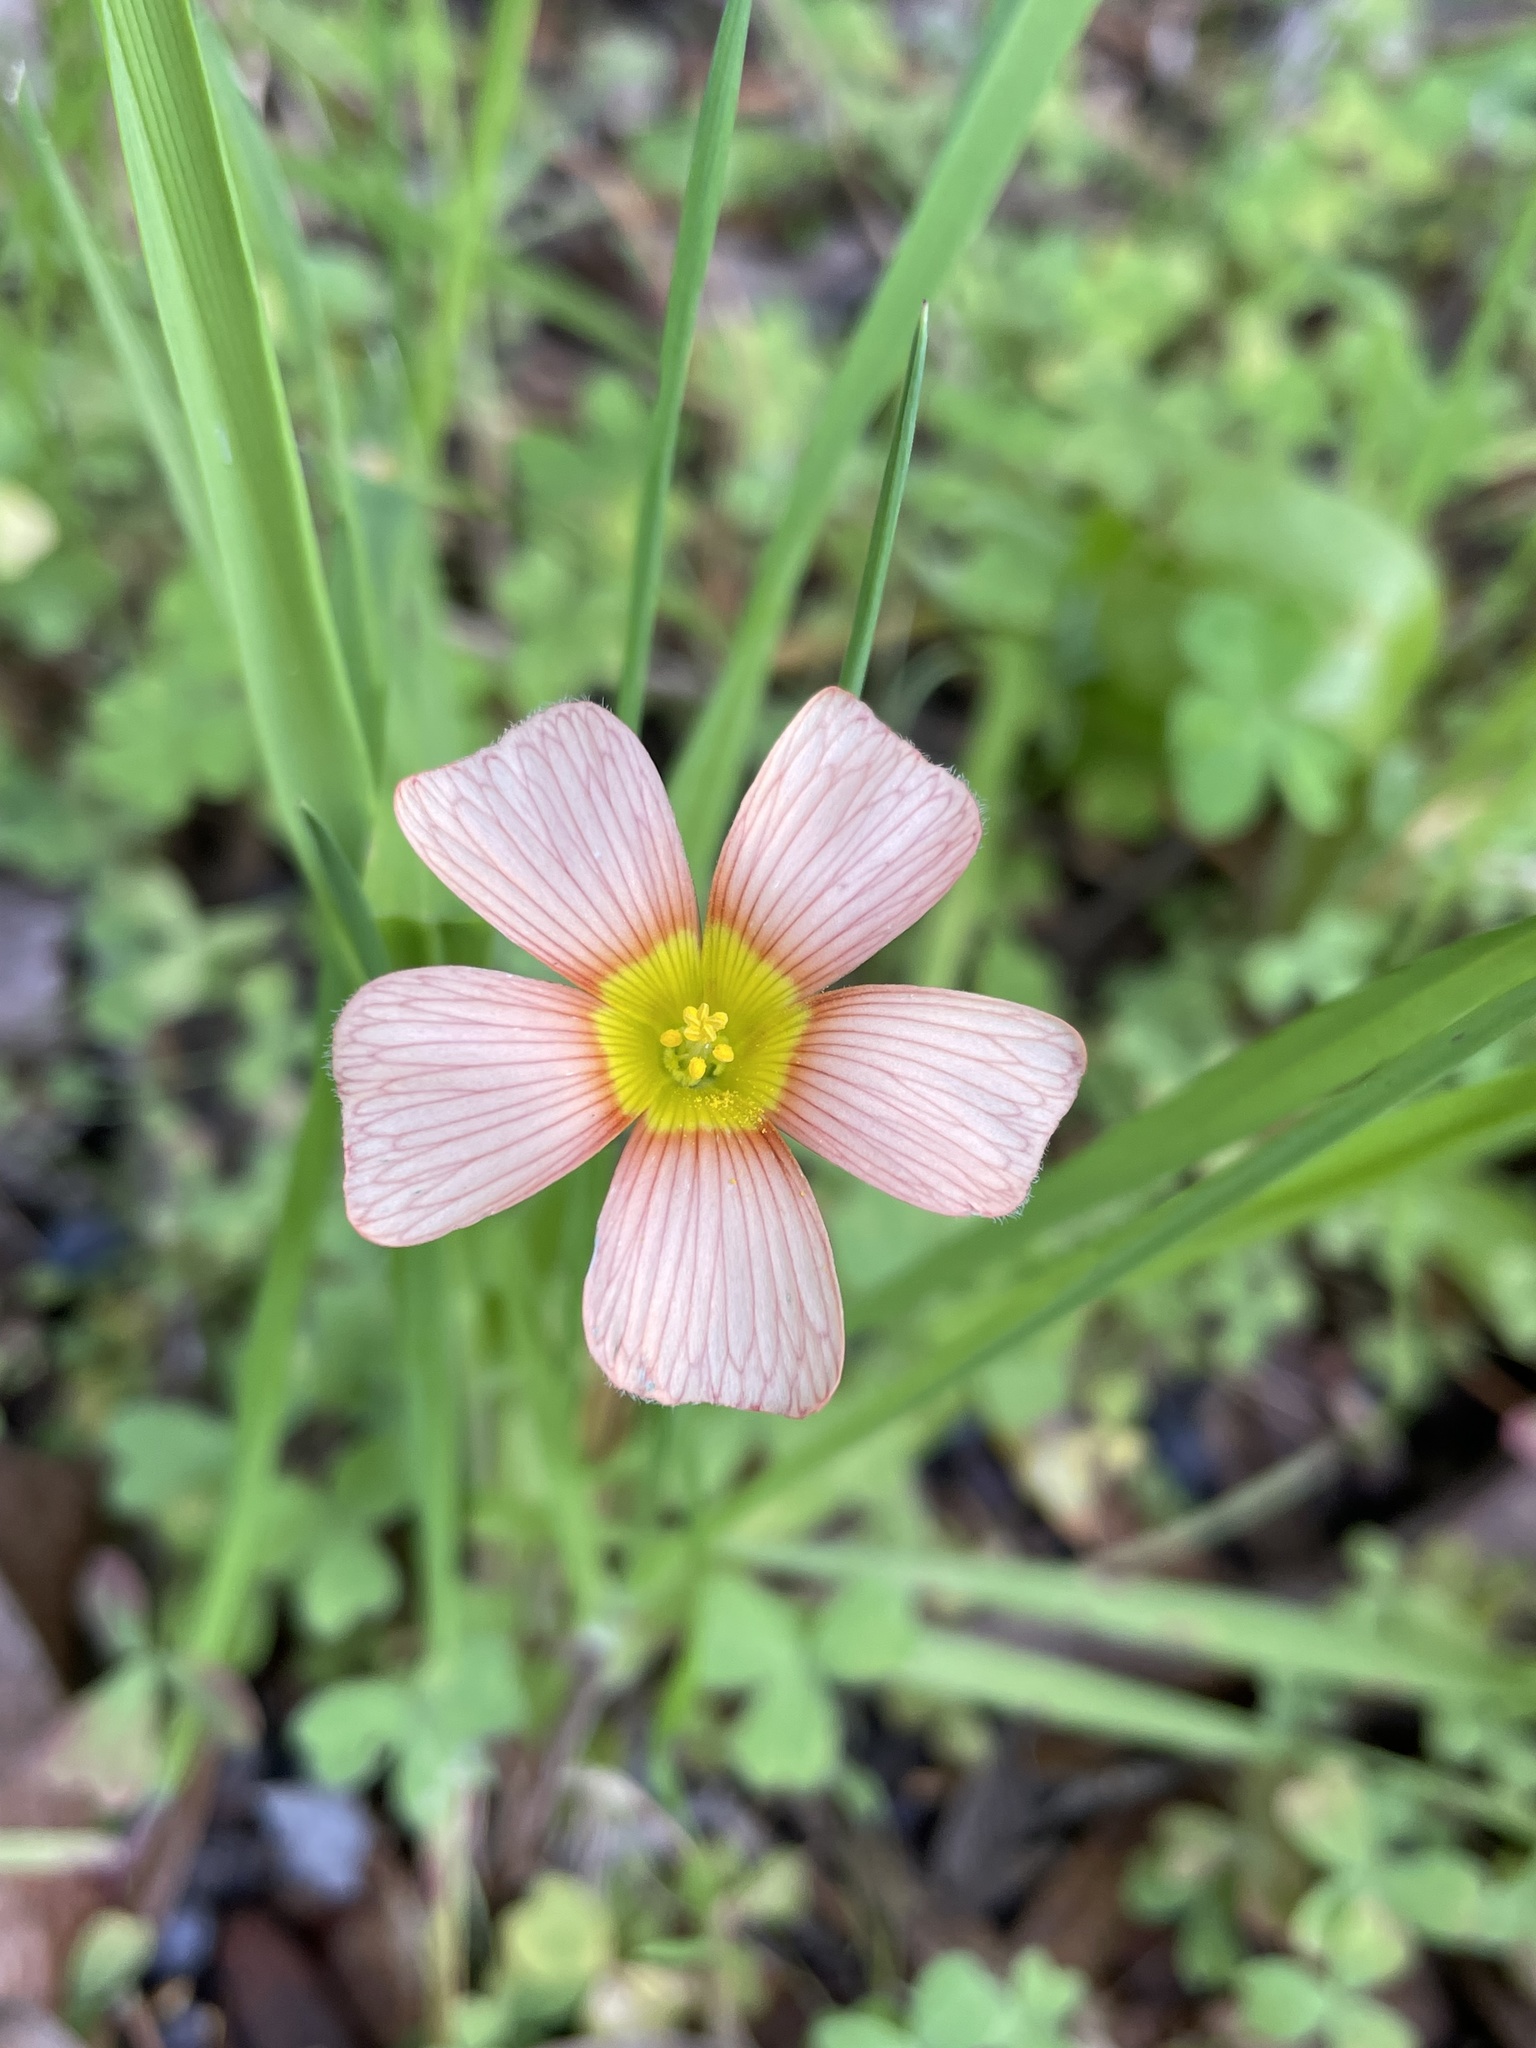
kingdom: Plantae
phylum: Tracheophyta
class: Magnoliopsida
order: Oxalidales
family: Oxalidaceae
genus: Oxalis
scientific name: Oxalis obtusa
